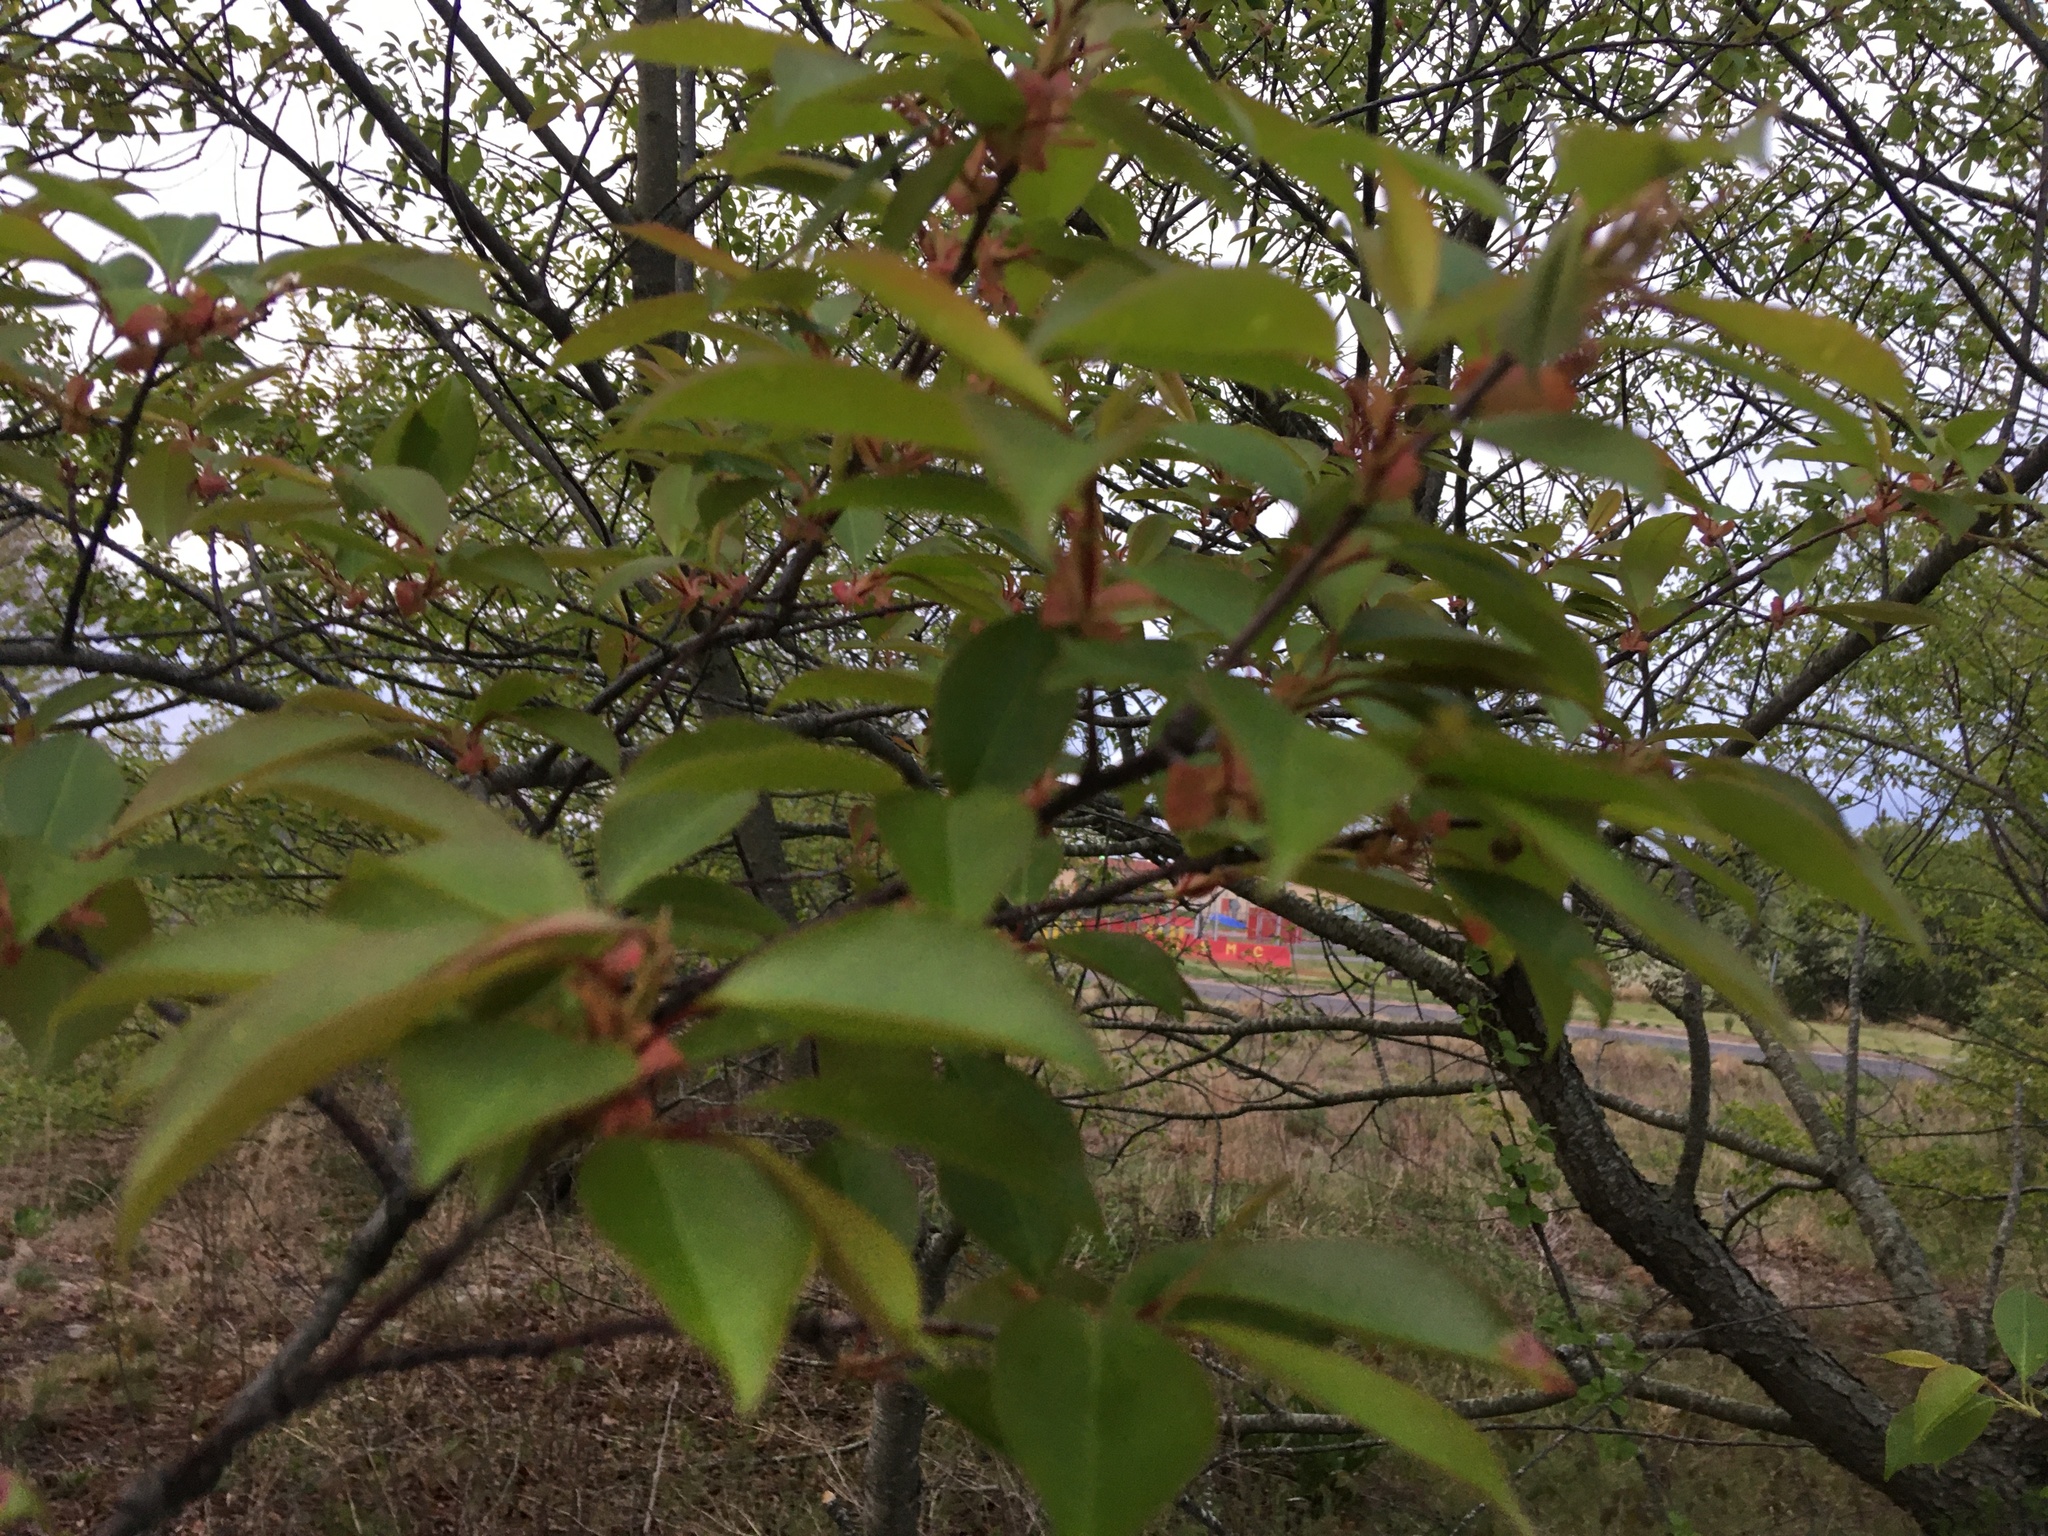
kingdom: Plantae
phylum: Tracheophyta
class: Magnoliopsida
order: Rosales
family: Rosaceae
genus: Prunus
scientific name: Prunus serotina
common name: Black cherry
